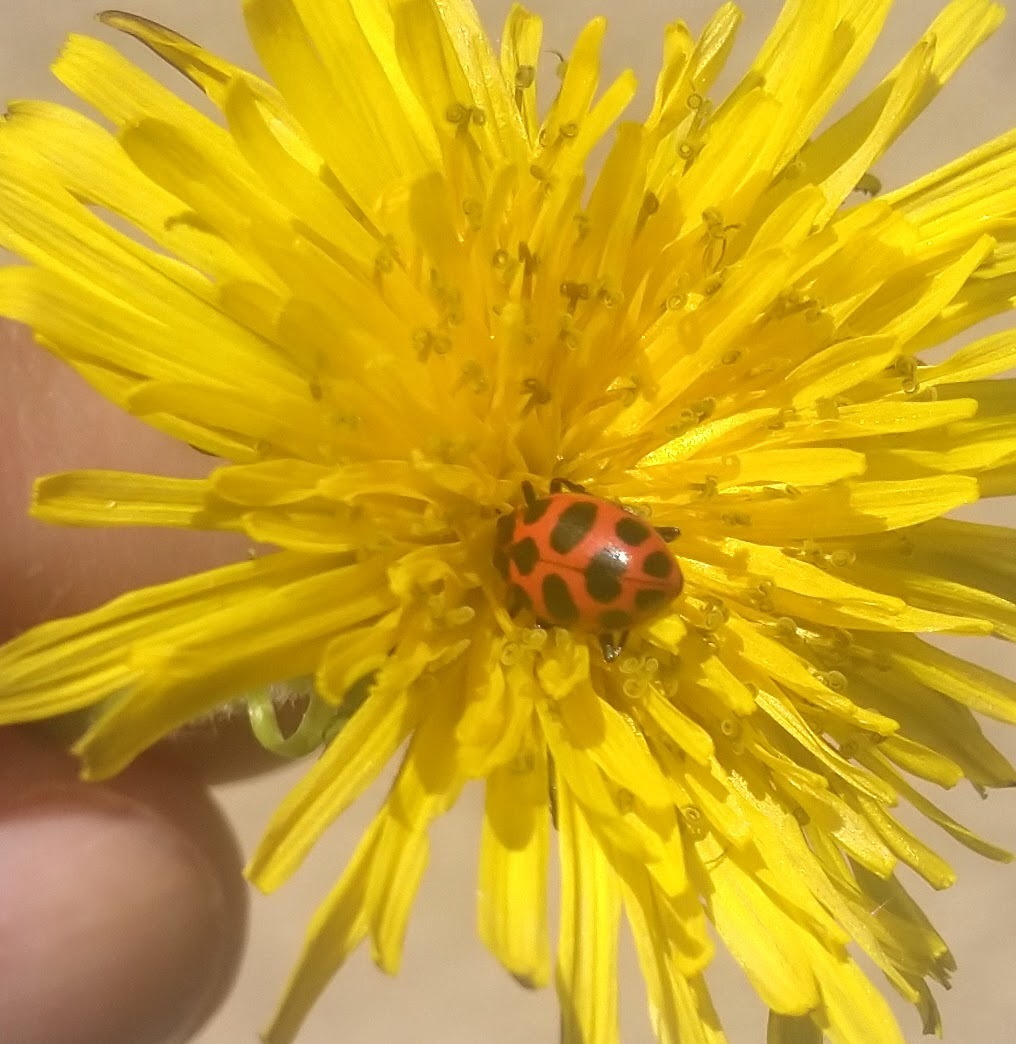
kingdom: Animalia
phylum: Arthropoda
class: Insecta
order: Coleoptera
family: Coccinellidae
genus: Coleomegilla
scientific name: Coleomegilla maculata
